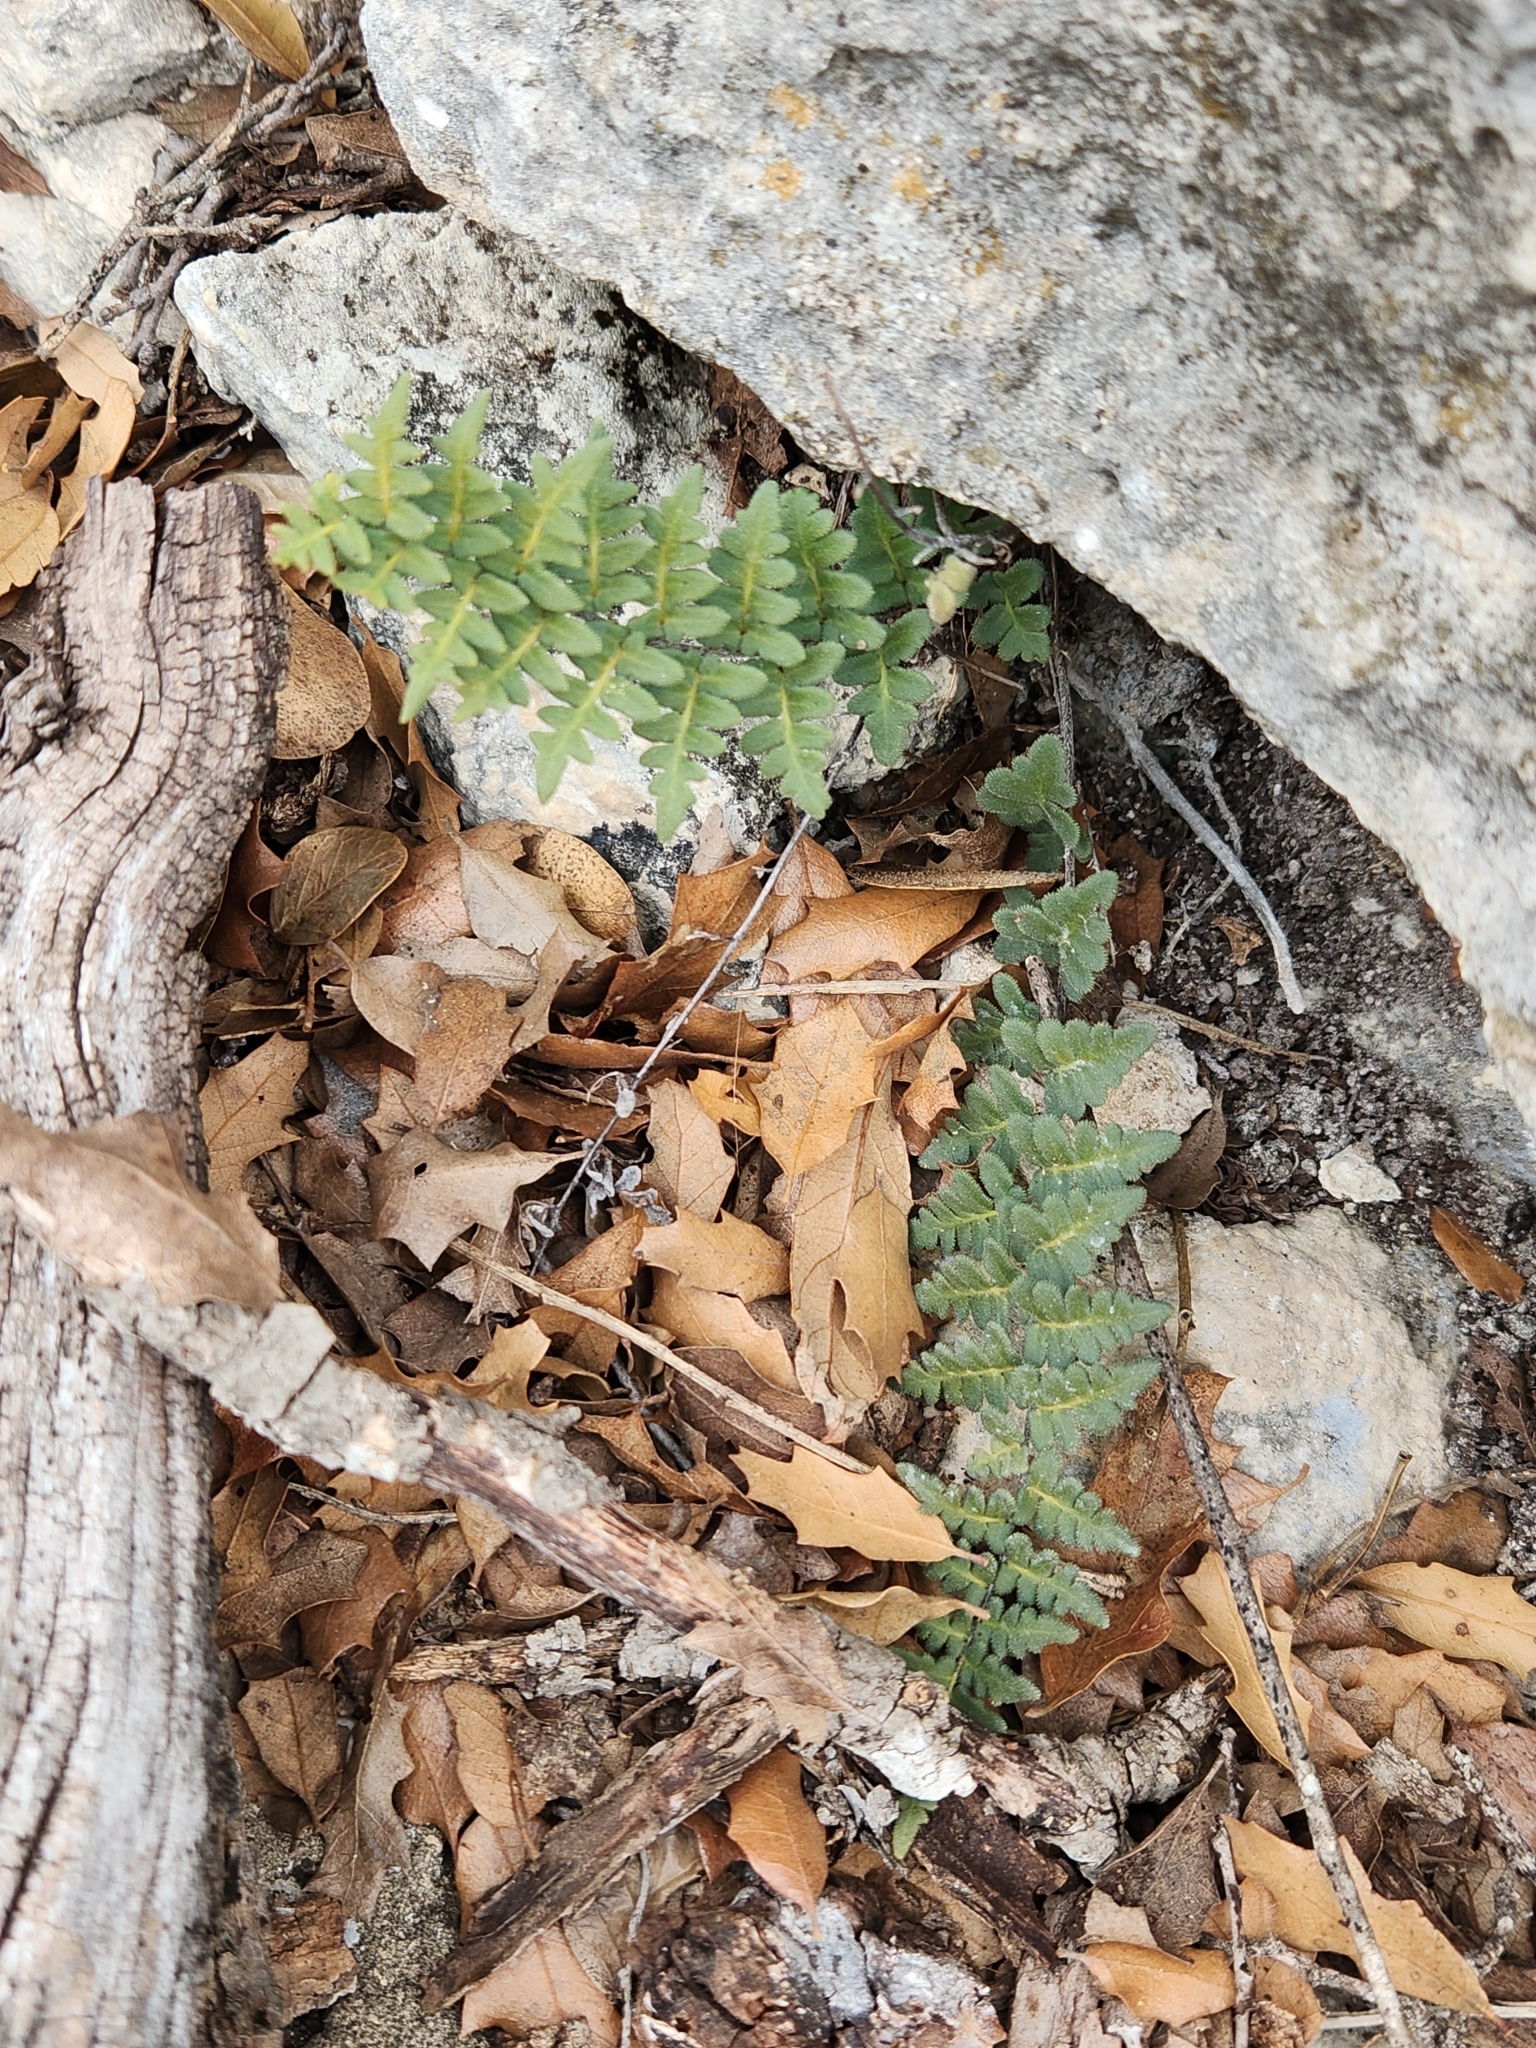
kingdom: Plantae
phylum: Tracheophyta
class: Polypodiopsida
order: Polypodiales
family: Pteridaceae
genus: Myriopteris
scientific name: Myriopteris scabra
